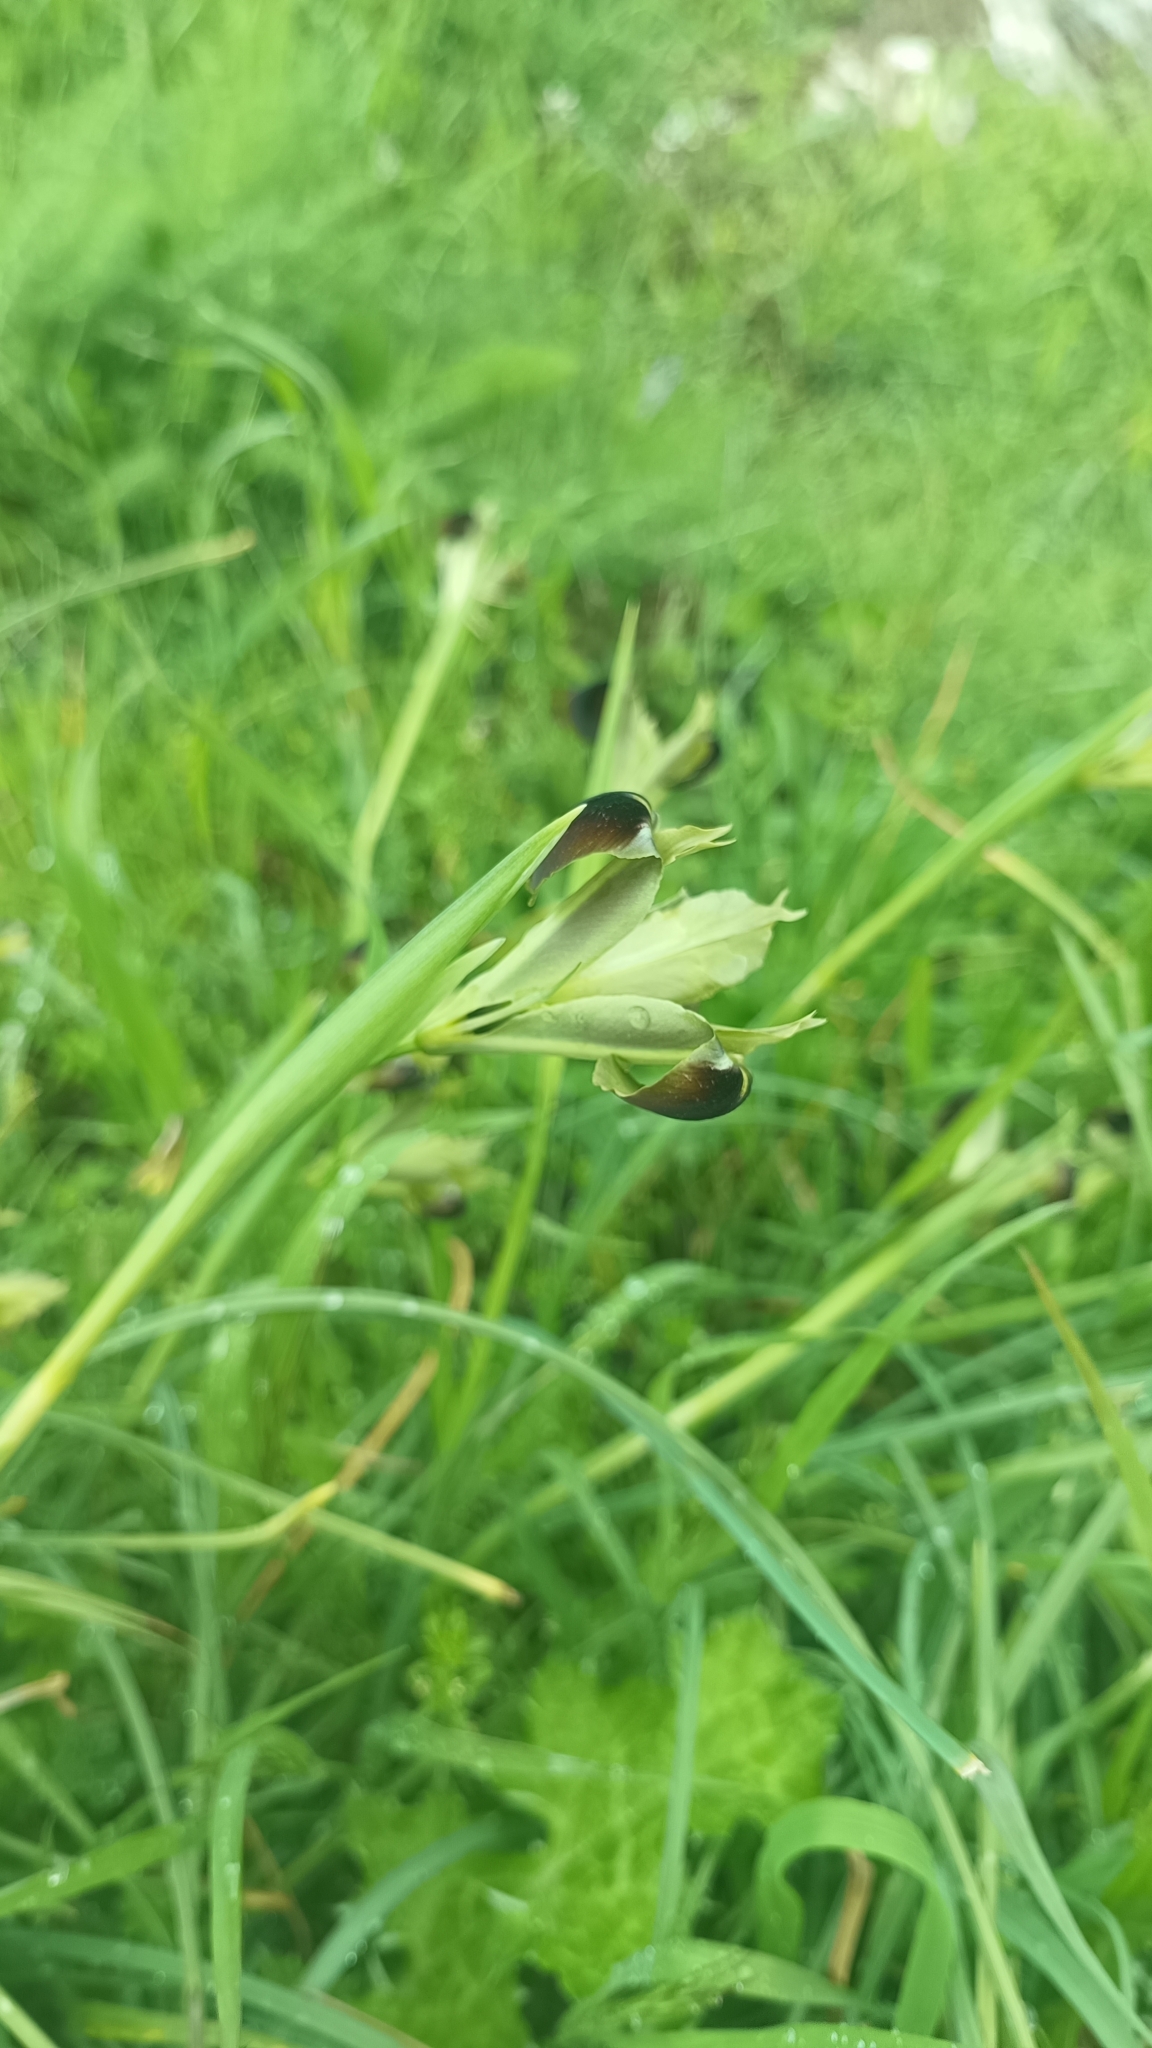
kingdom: Plantae
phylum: Tracheophyta
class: Liliopsida
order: Asparagales
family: Iridaceae
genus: Iris
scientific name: Iris tuberosa
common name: Snake's-head iris
